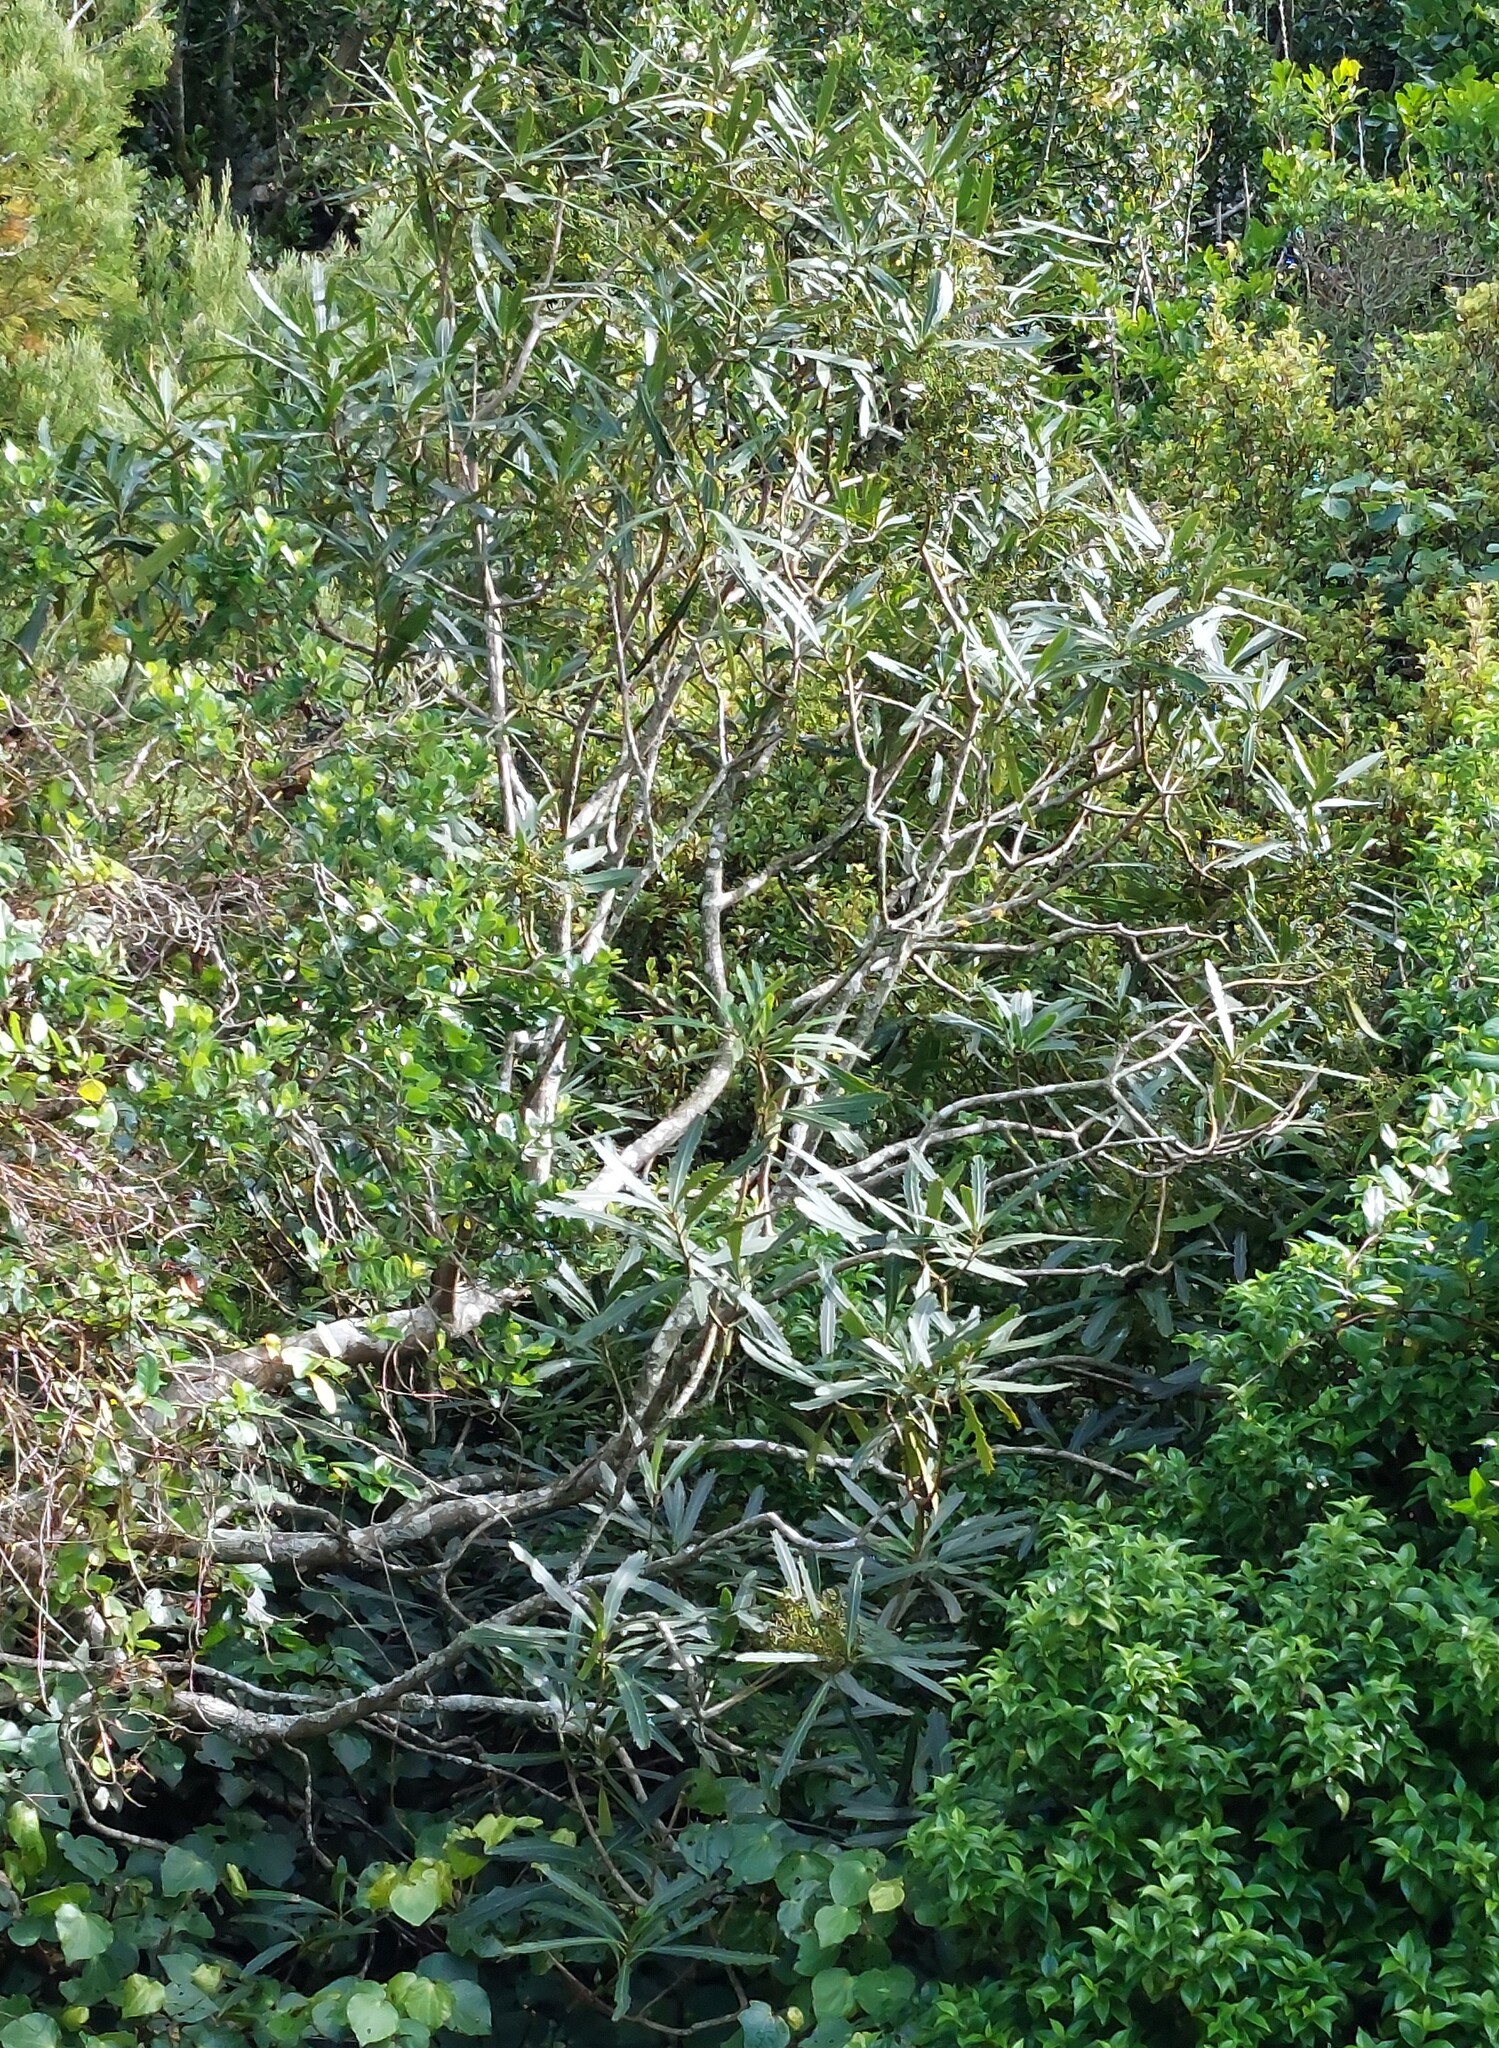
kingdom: Plantae
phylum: Tracheophyta
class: Magnoliopsida
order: Apiales
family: Araliaceae
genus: Pseudopanax
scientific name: Pseudopanax crassifolius
